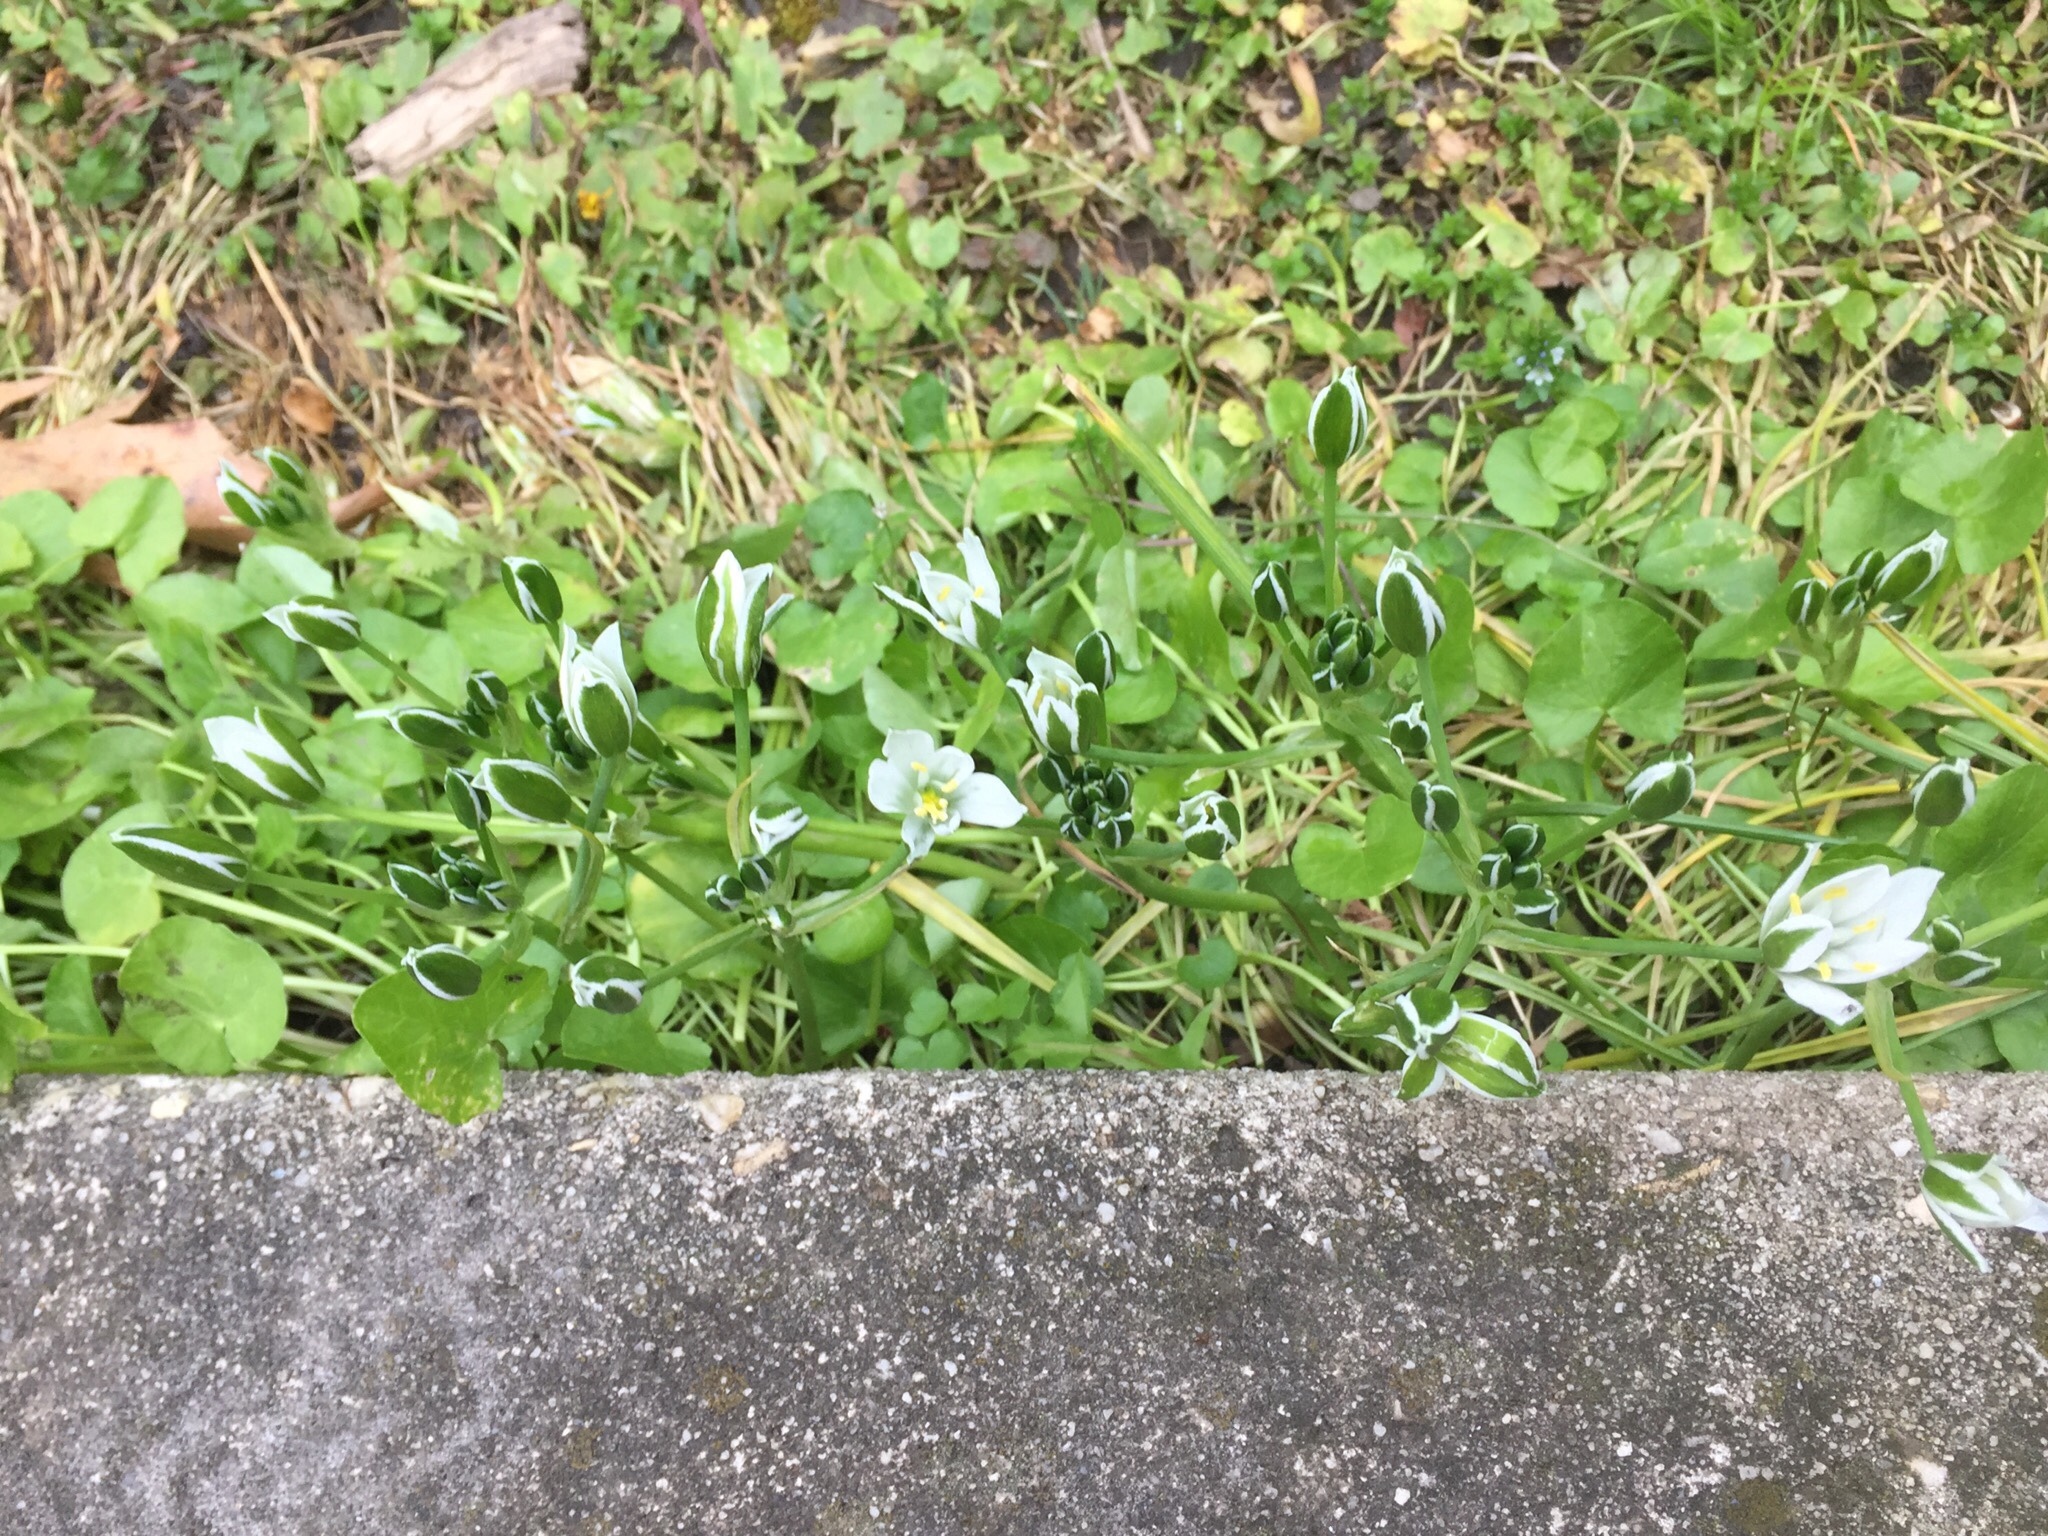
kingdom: Plantae
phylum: Tracheophyta
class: Liliopsida
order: Asparagales
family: Asparagaceae
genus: Ornithogalum
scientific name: Ornithogalum umbellatum
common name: Garden star-of-bethlehem
